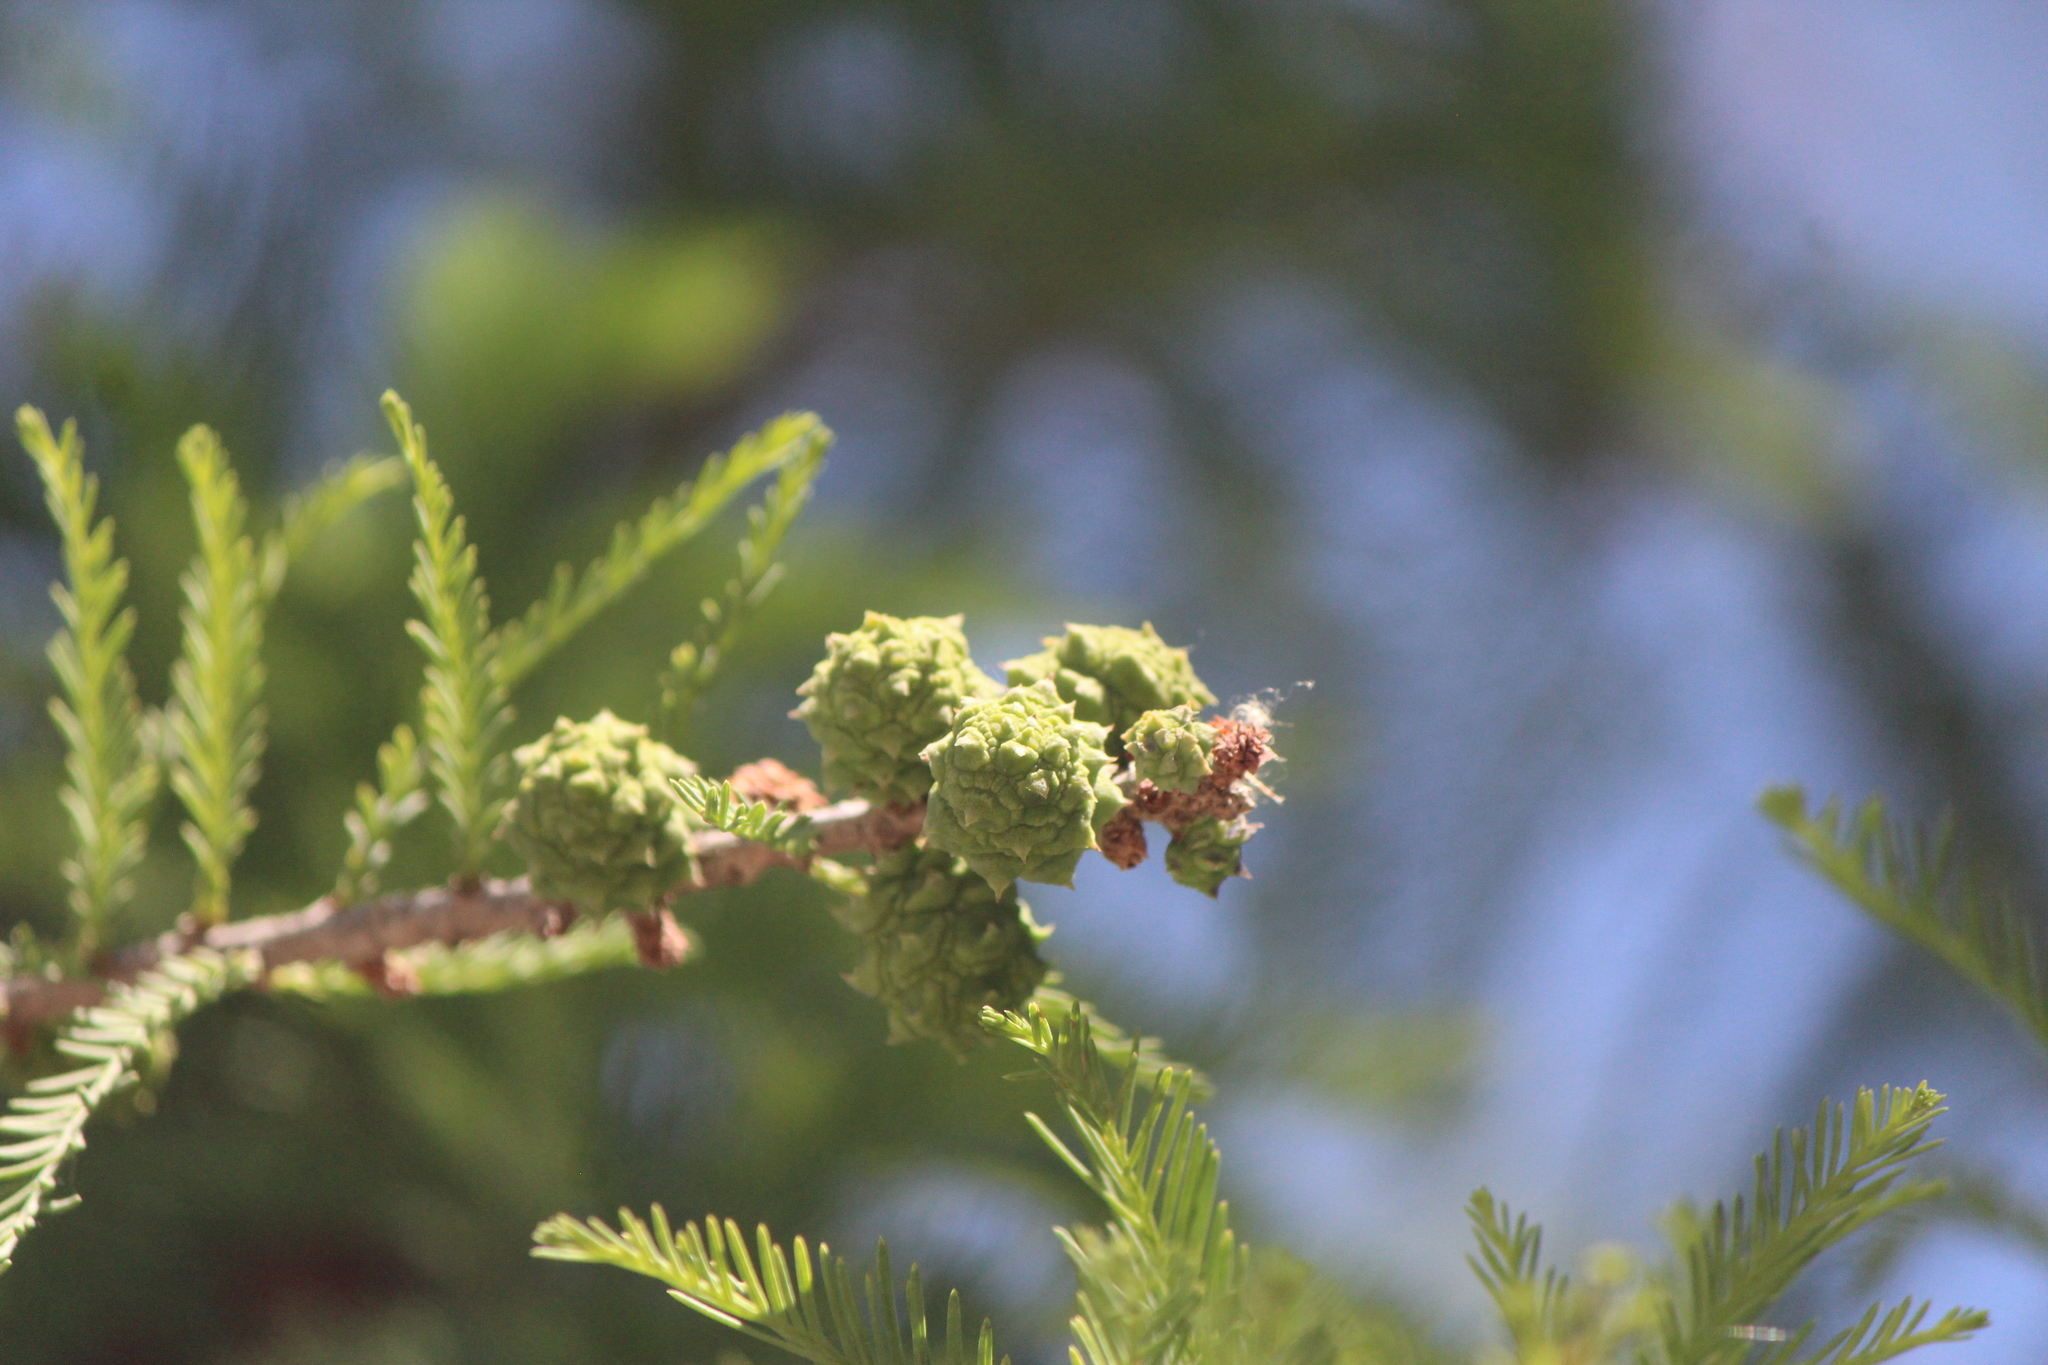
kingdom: Plantae
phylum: Tracheophyta
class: Pinopsida
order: Pinales
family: Cupressaceae
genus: Taxodium
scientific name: Taxodium mucronatum
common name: Montezume bald cypress
